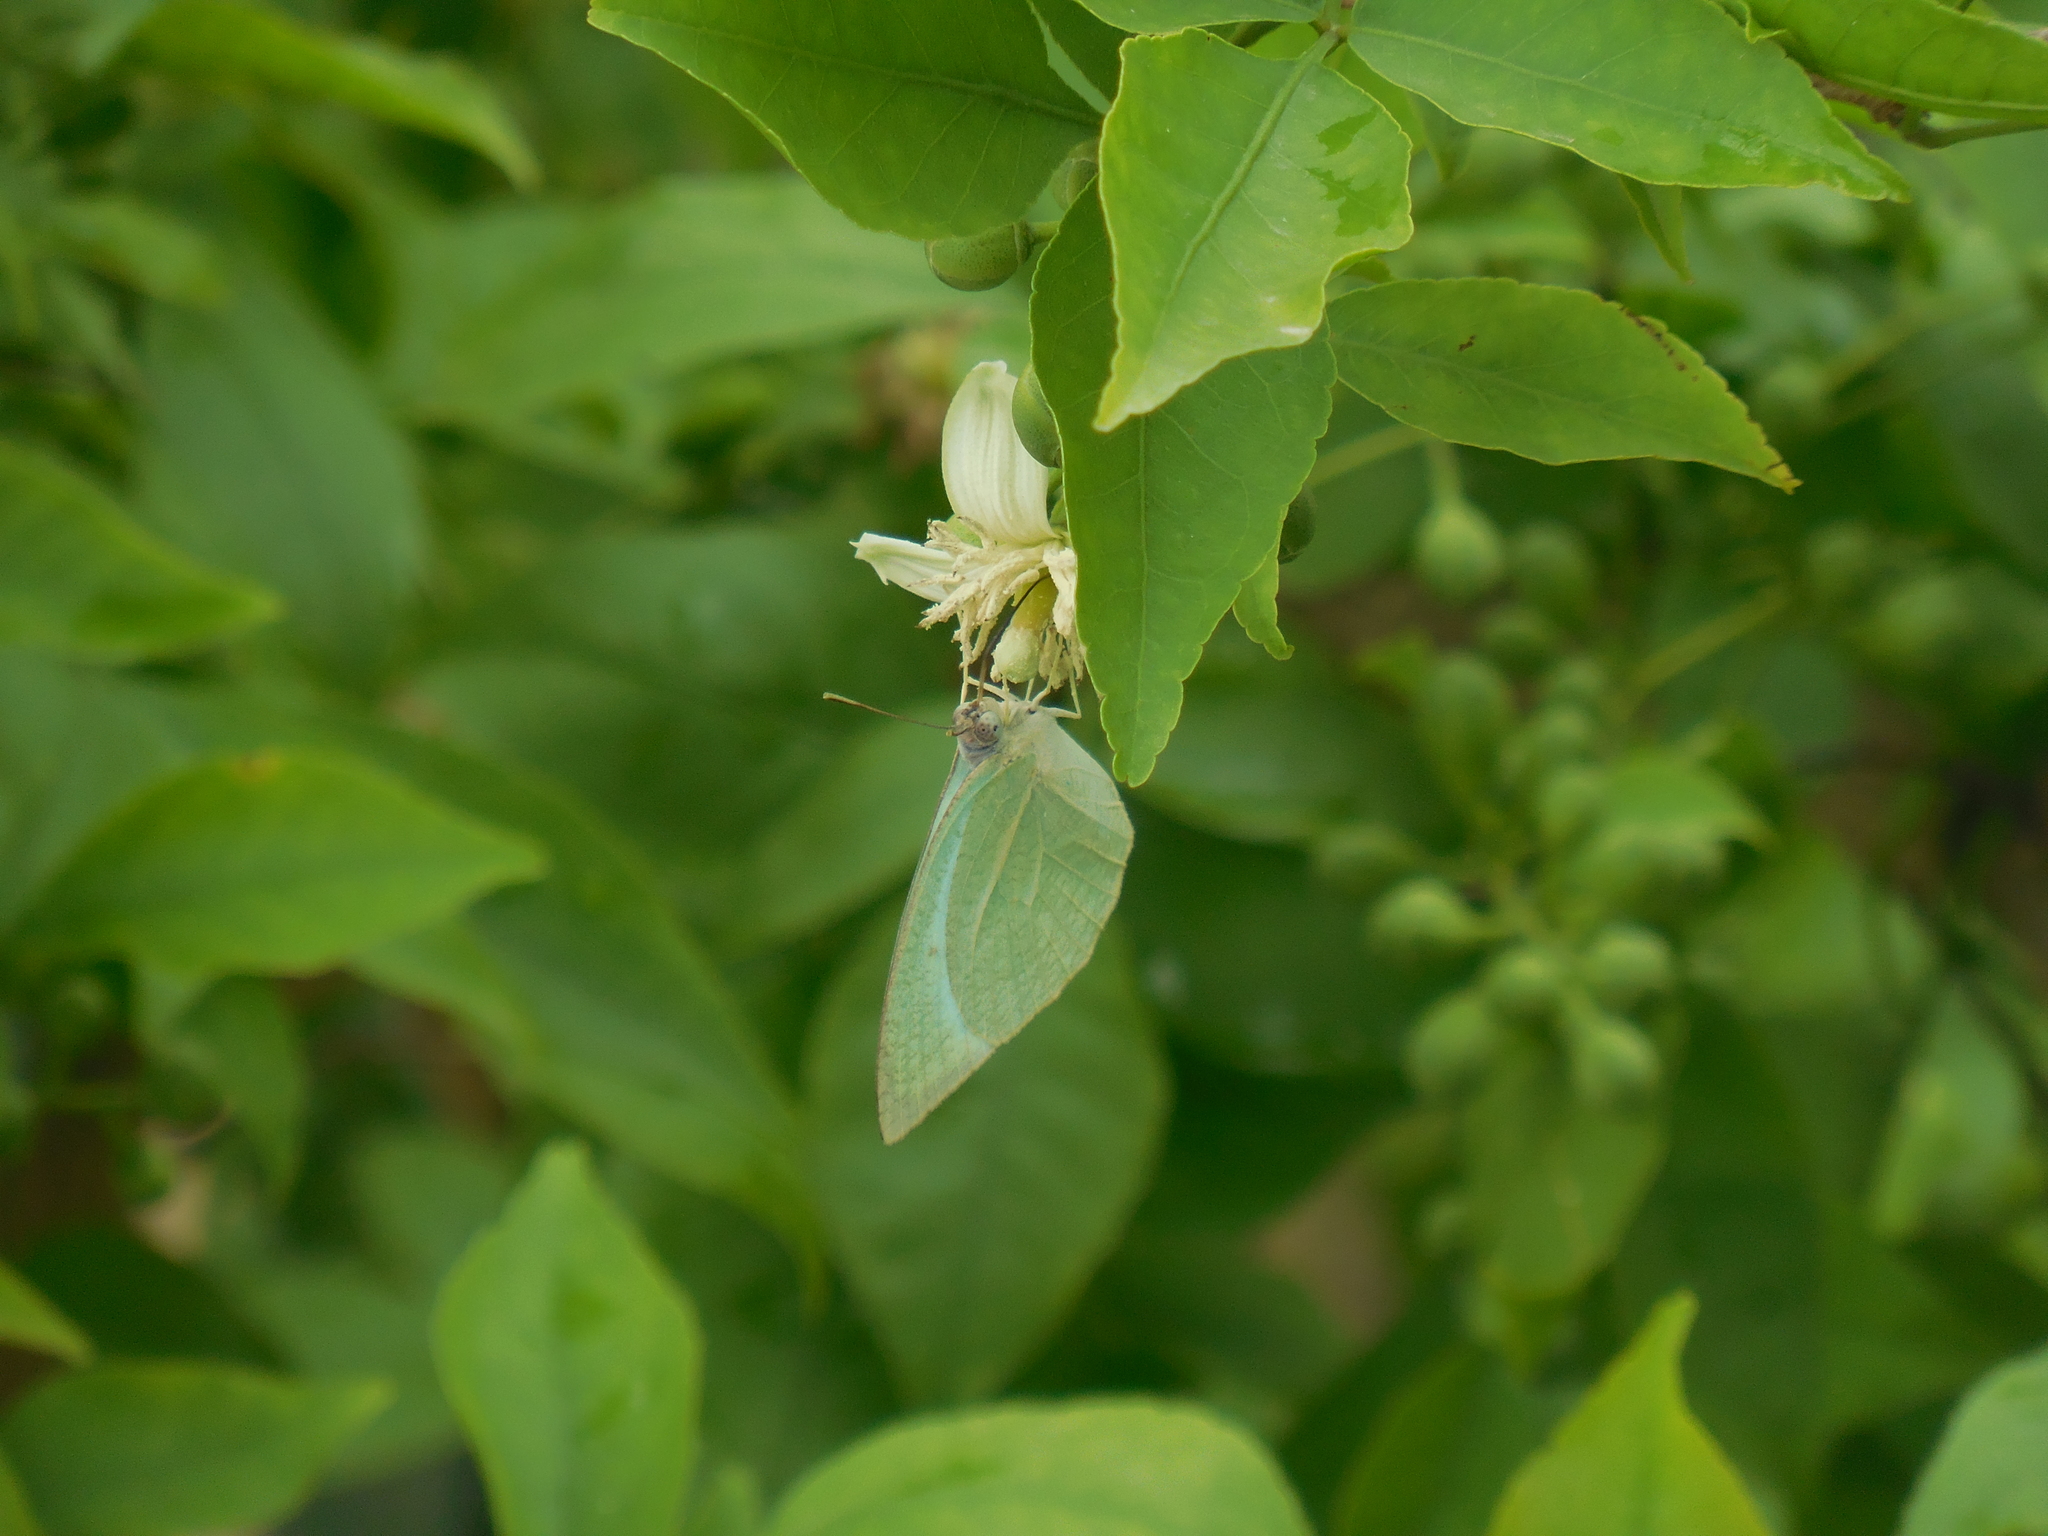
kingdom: Animalia
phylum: Arthropoda
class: Insecta
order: Lepidoptera
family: Pieridae
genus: Catopsilia
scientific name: Catopsilia pyranthe
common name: Mottled emigrant
